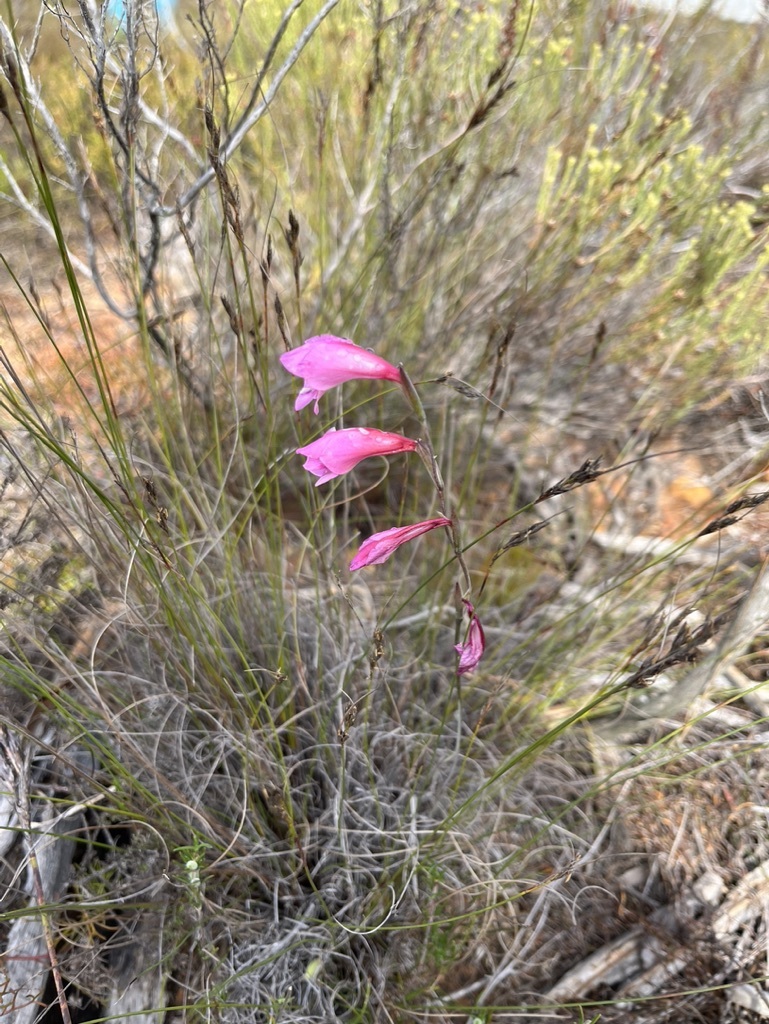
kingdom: Plantae
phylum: Tracheophyta
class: Liliopsida
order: Asparagales
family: Iridaceae
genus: Gladiolus
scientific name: Gladiolus brevifolius
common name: March pypie
